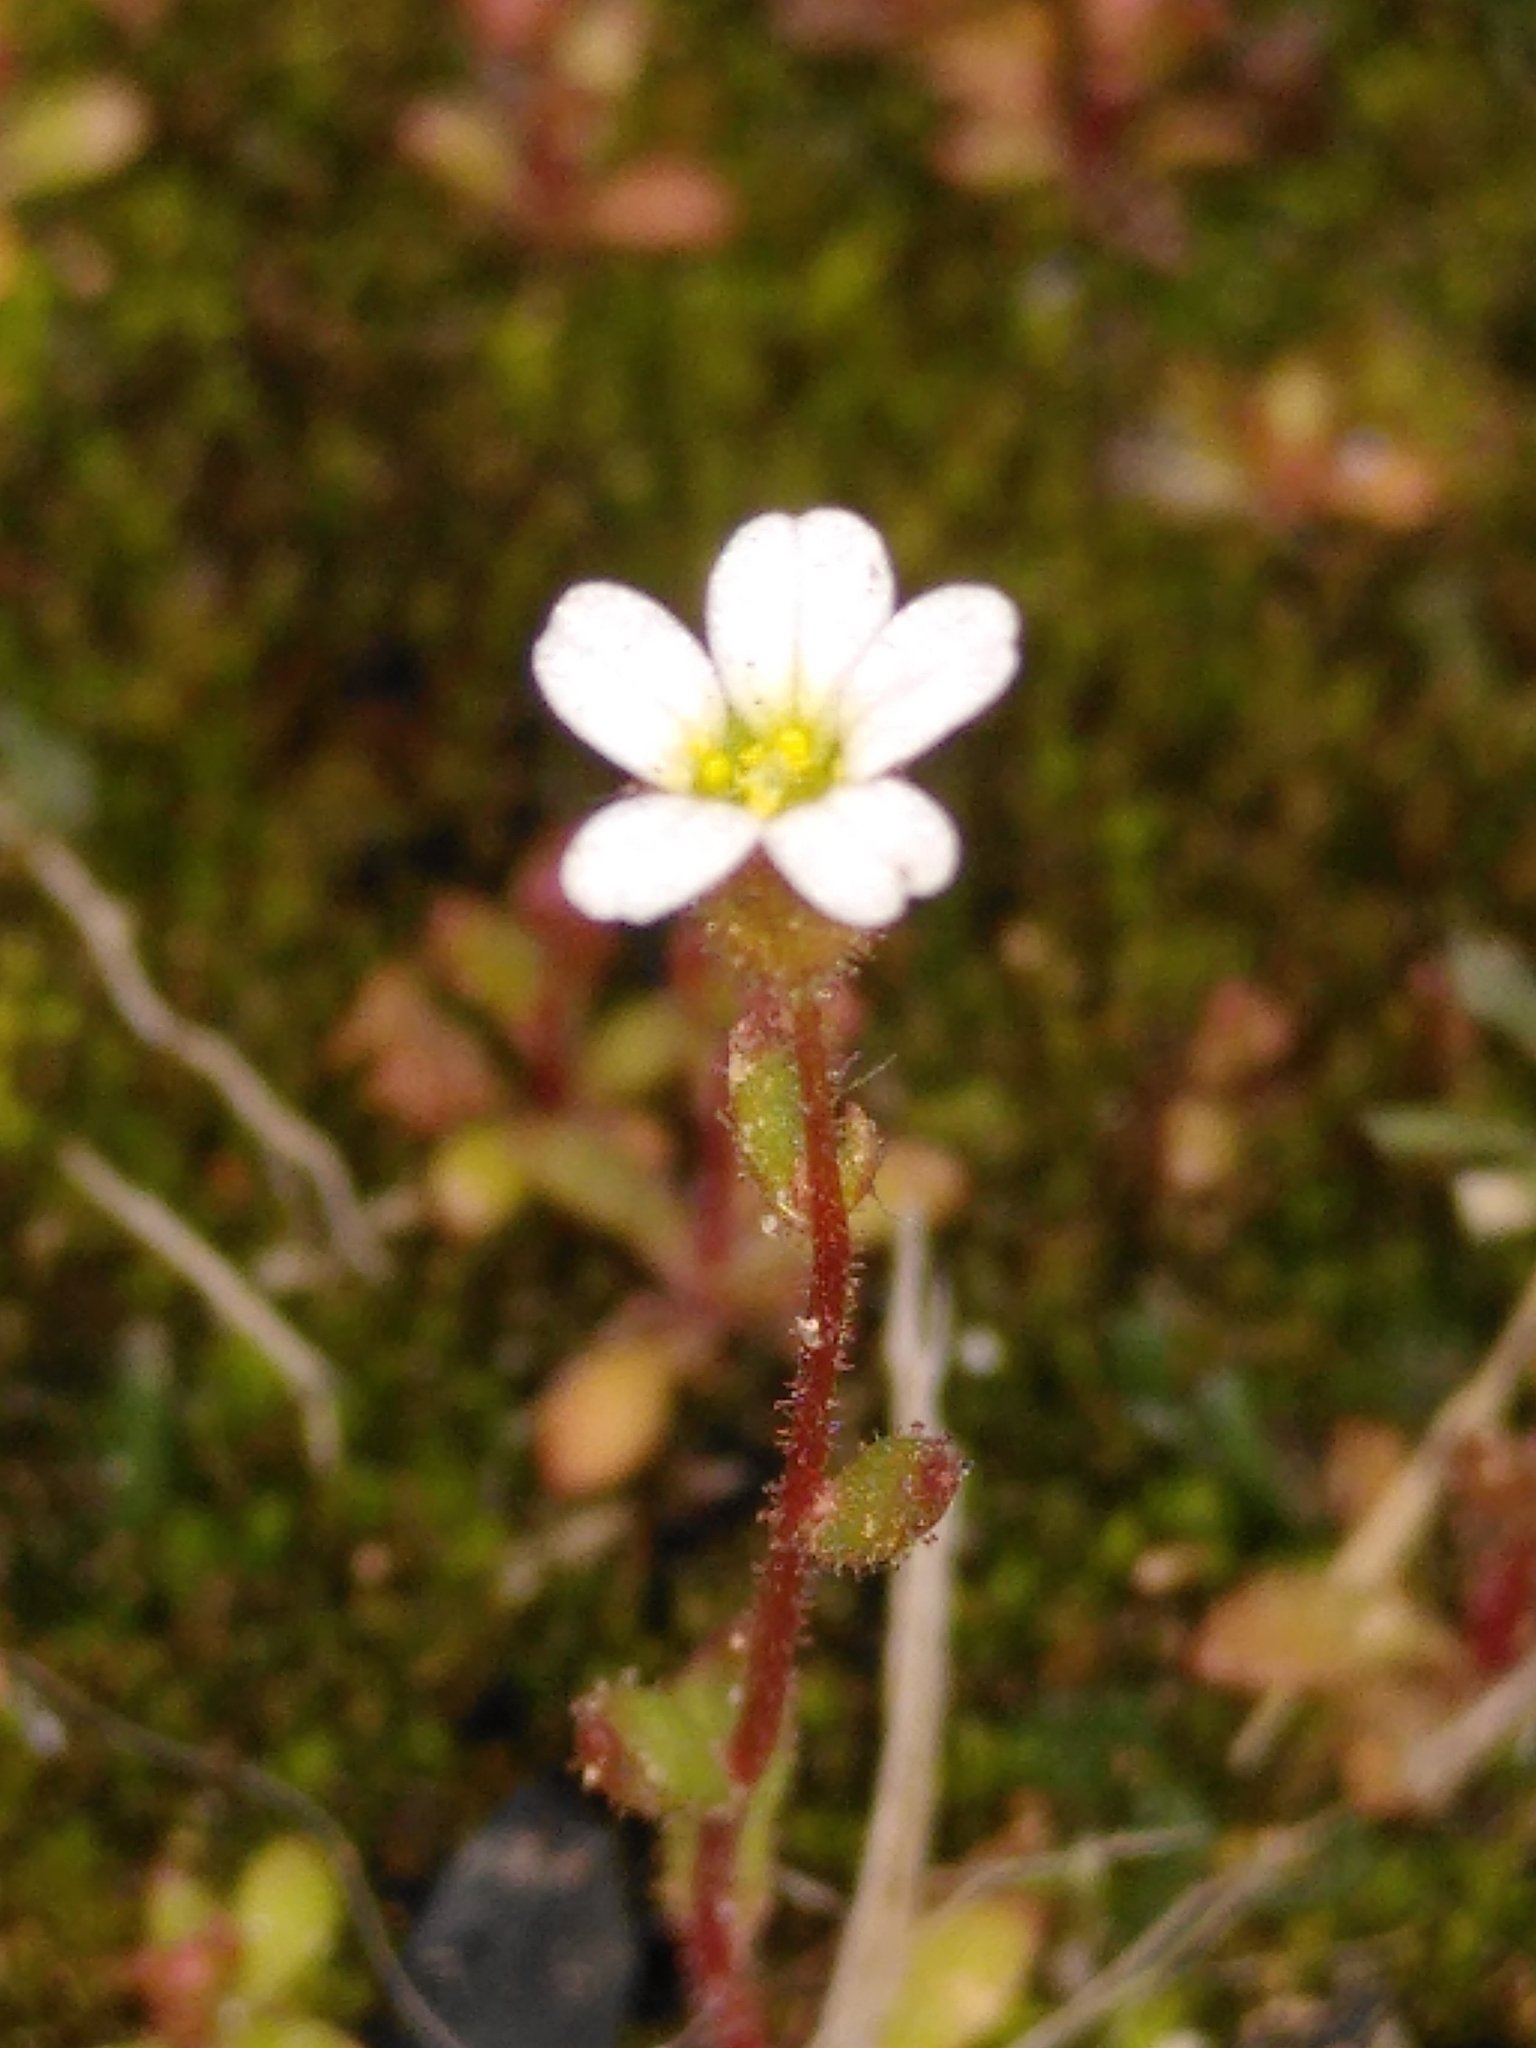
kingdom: Plantae
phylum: Tracheophyta
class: Magnoliopsida
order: Saxifragales
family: Saxifragaceae
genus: Saxifraga
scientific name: Saxifraga tridactylites
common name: Rue-leaved saxifrage
